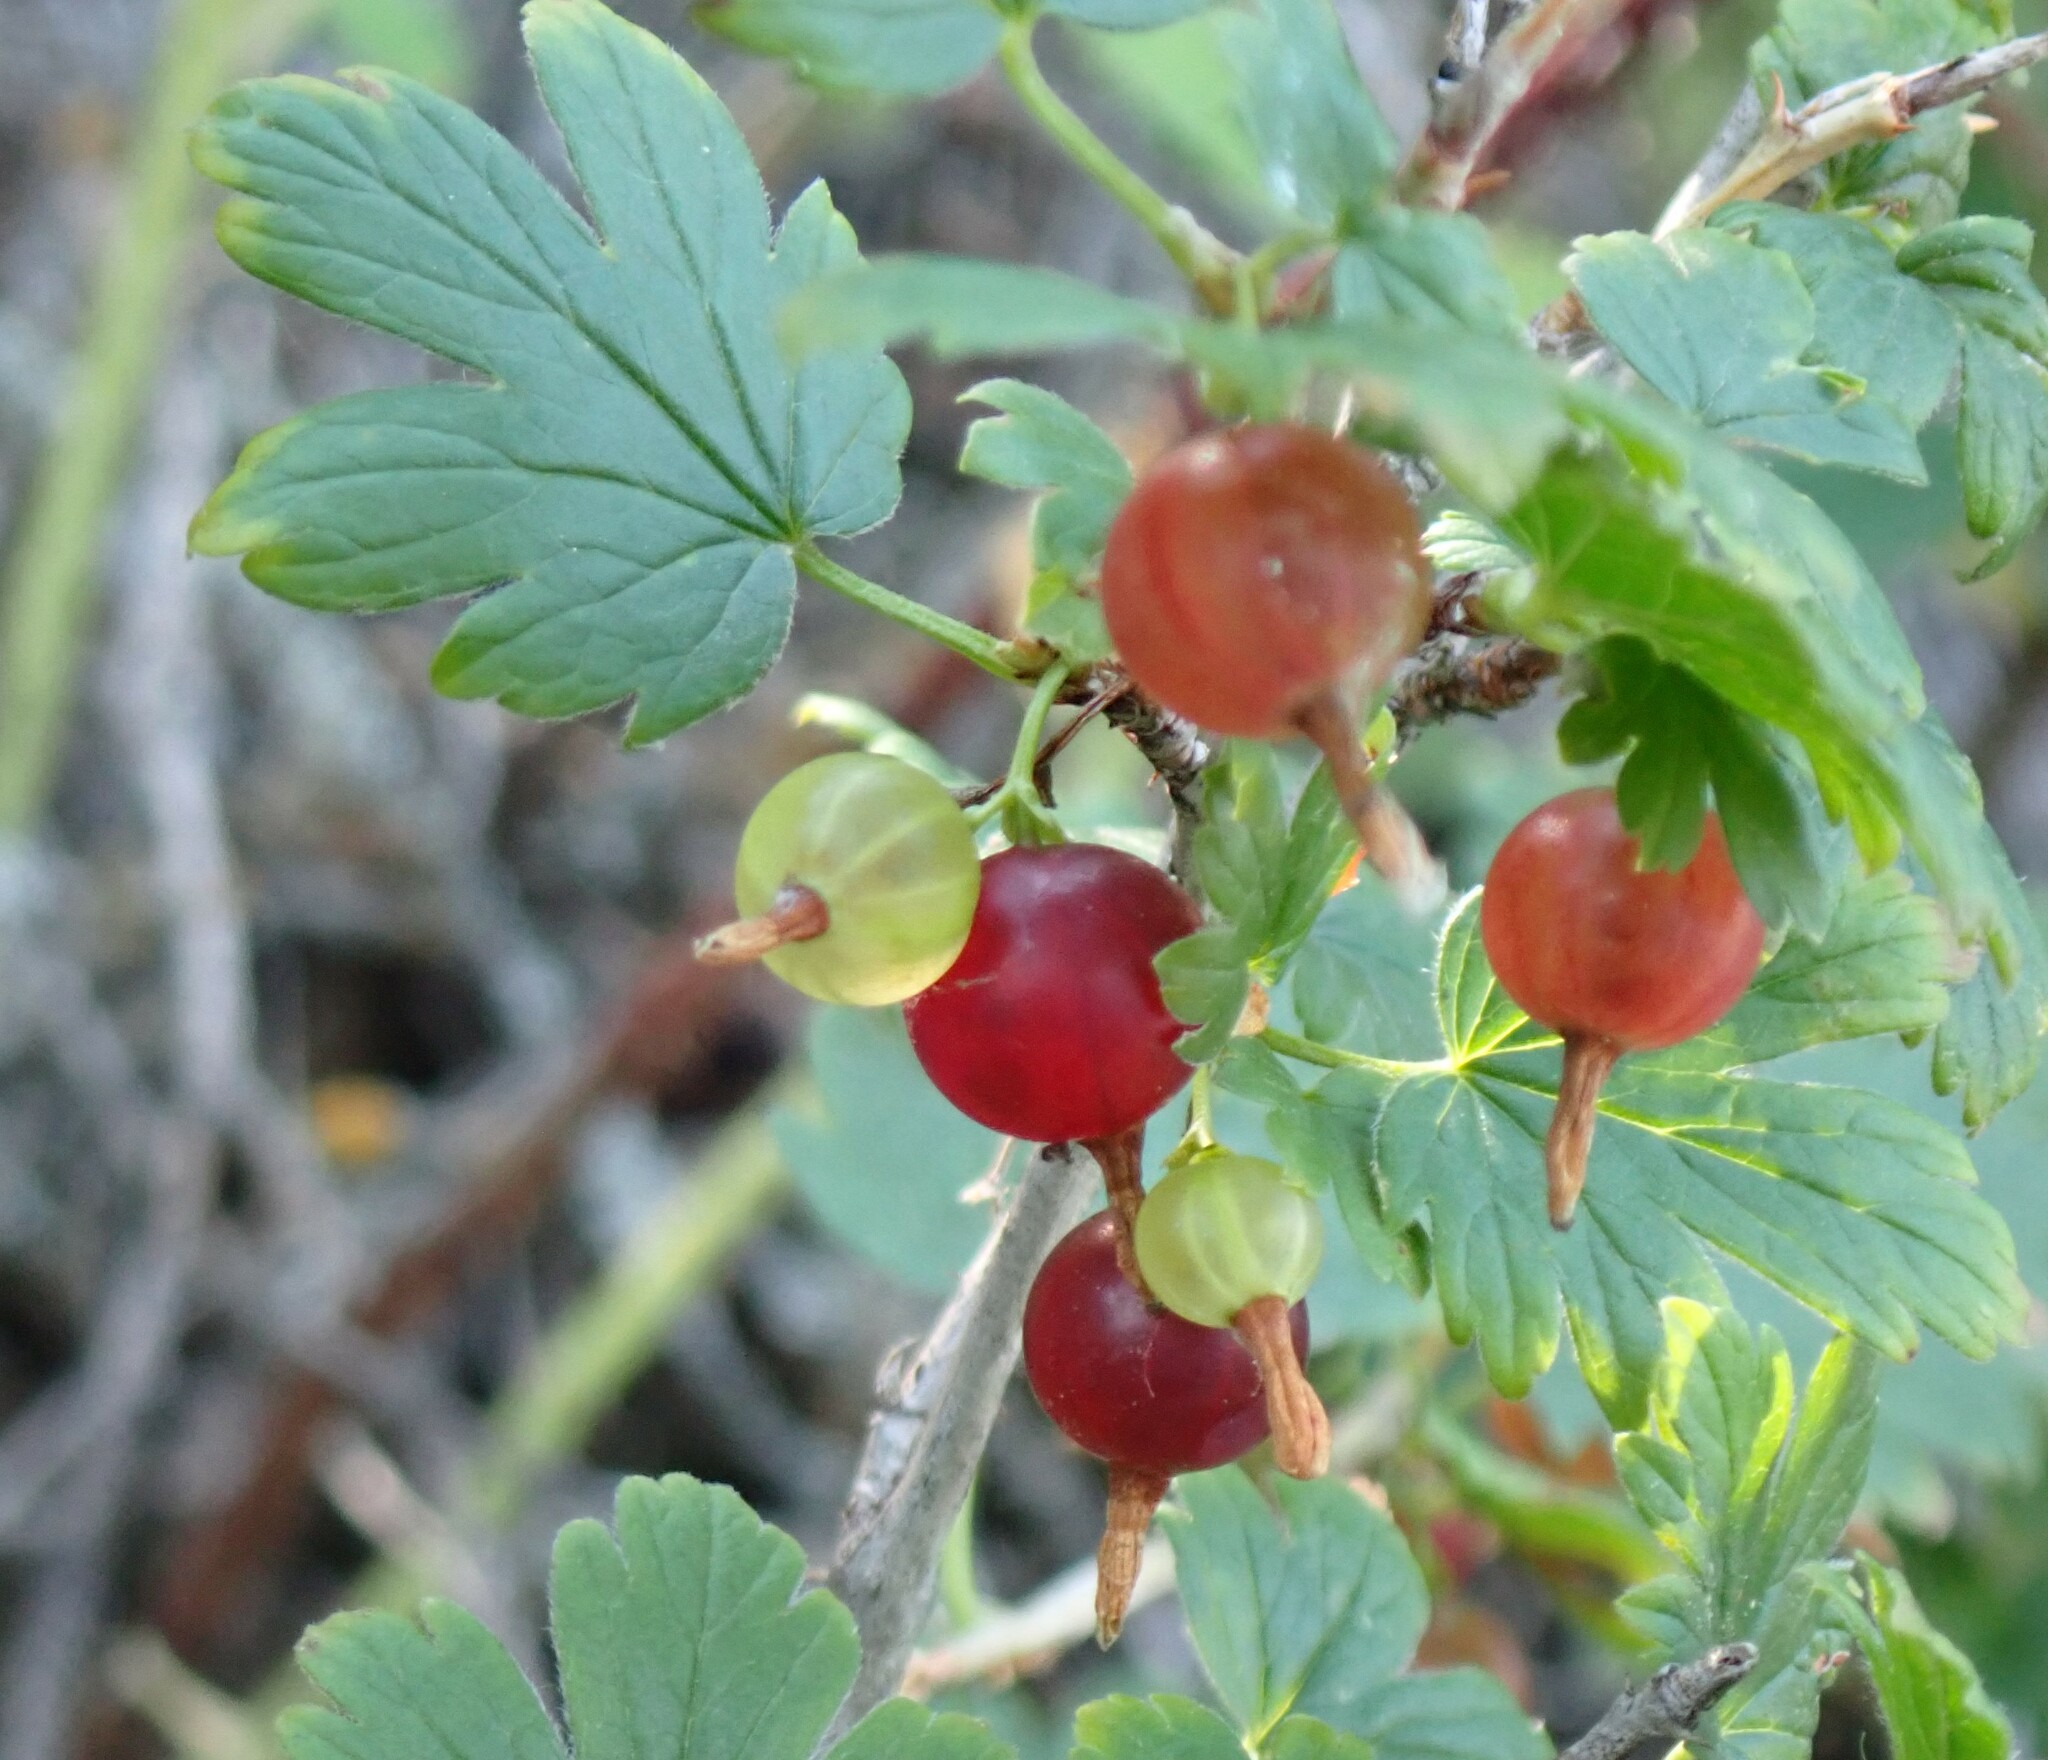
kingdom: Plantae
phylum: Tracheophyta
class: Magnoliopsida
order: Saxifragales
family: Grossulariaceae
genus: Ribes
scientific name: Ribes oxyacanthoides
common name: Northern gooseberry
